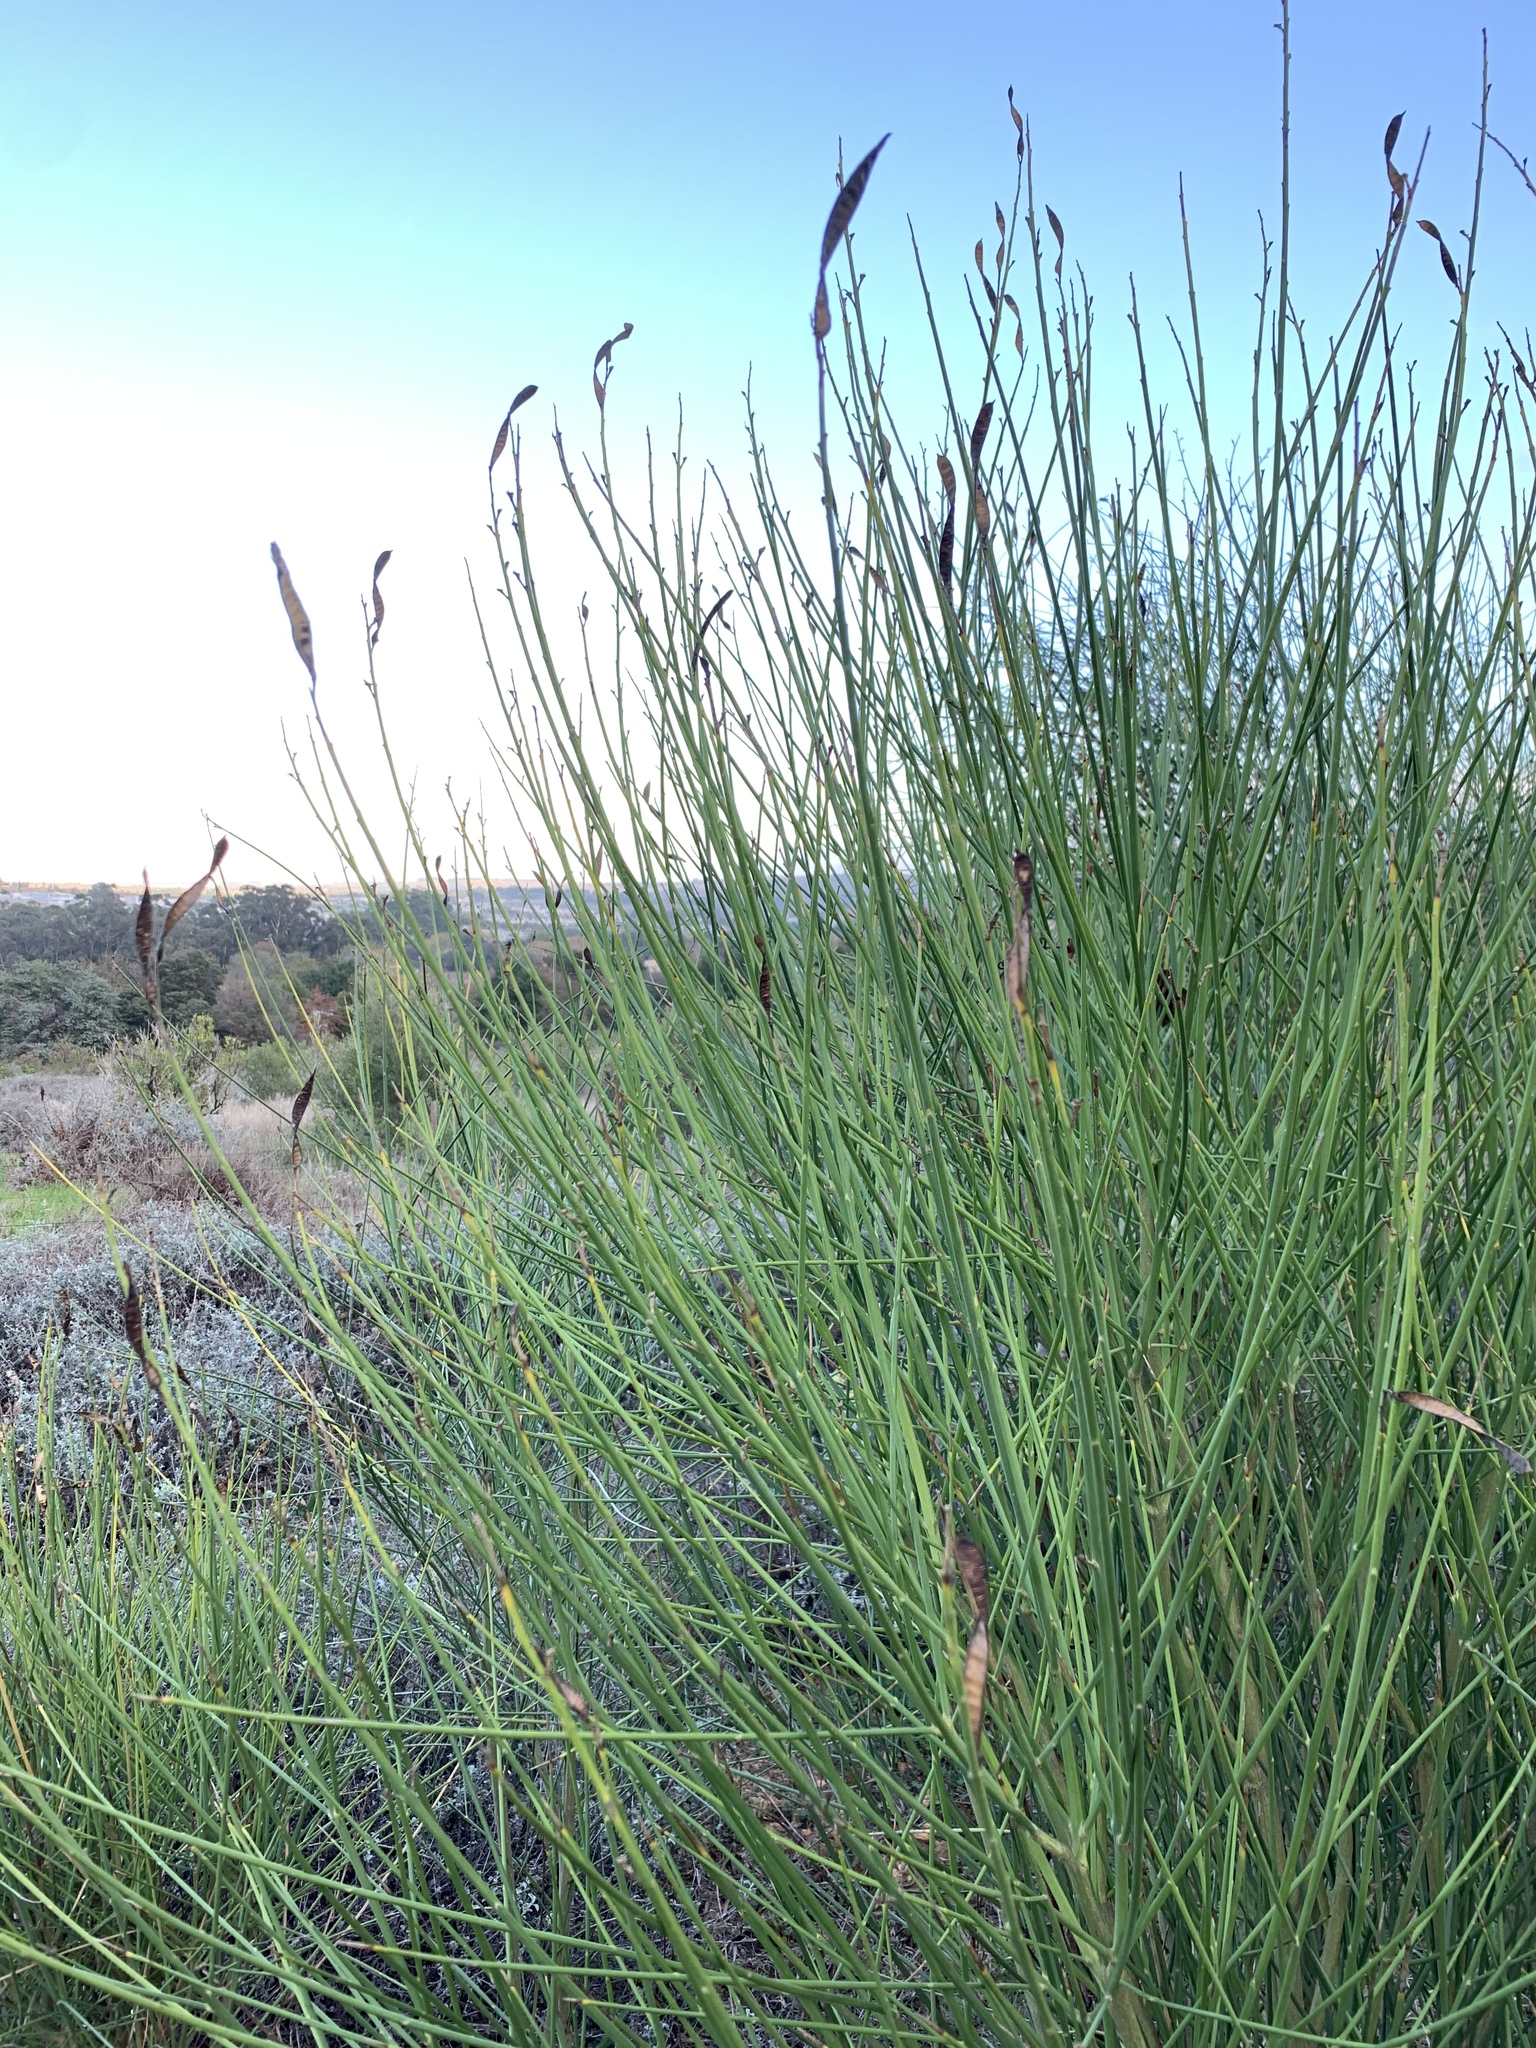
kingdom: Plantae
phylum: Tracheophyta
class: Magnoliopsida
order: Fabales
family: Fabaceae
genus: Spartium
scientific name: Spartium junceum
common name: Spanish broom
